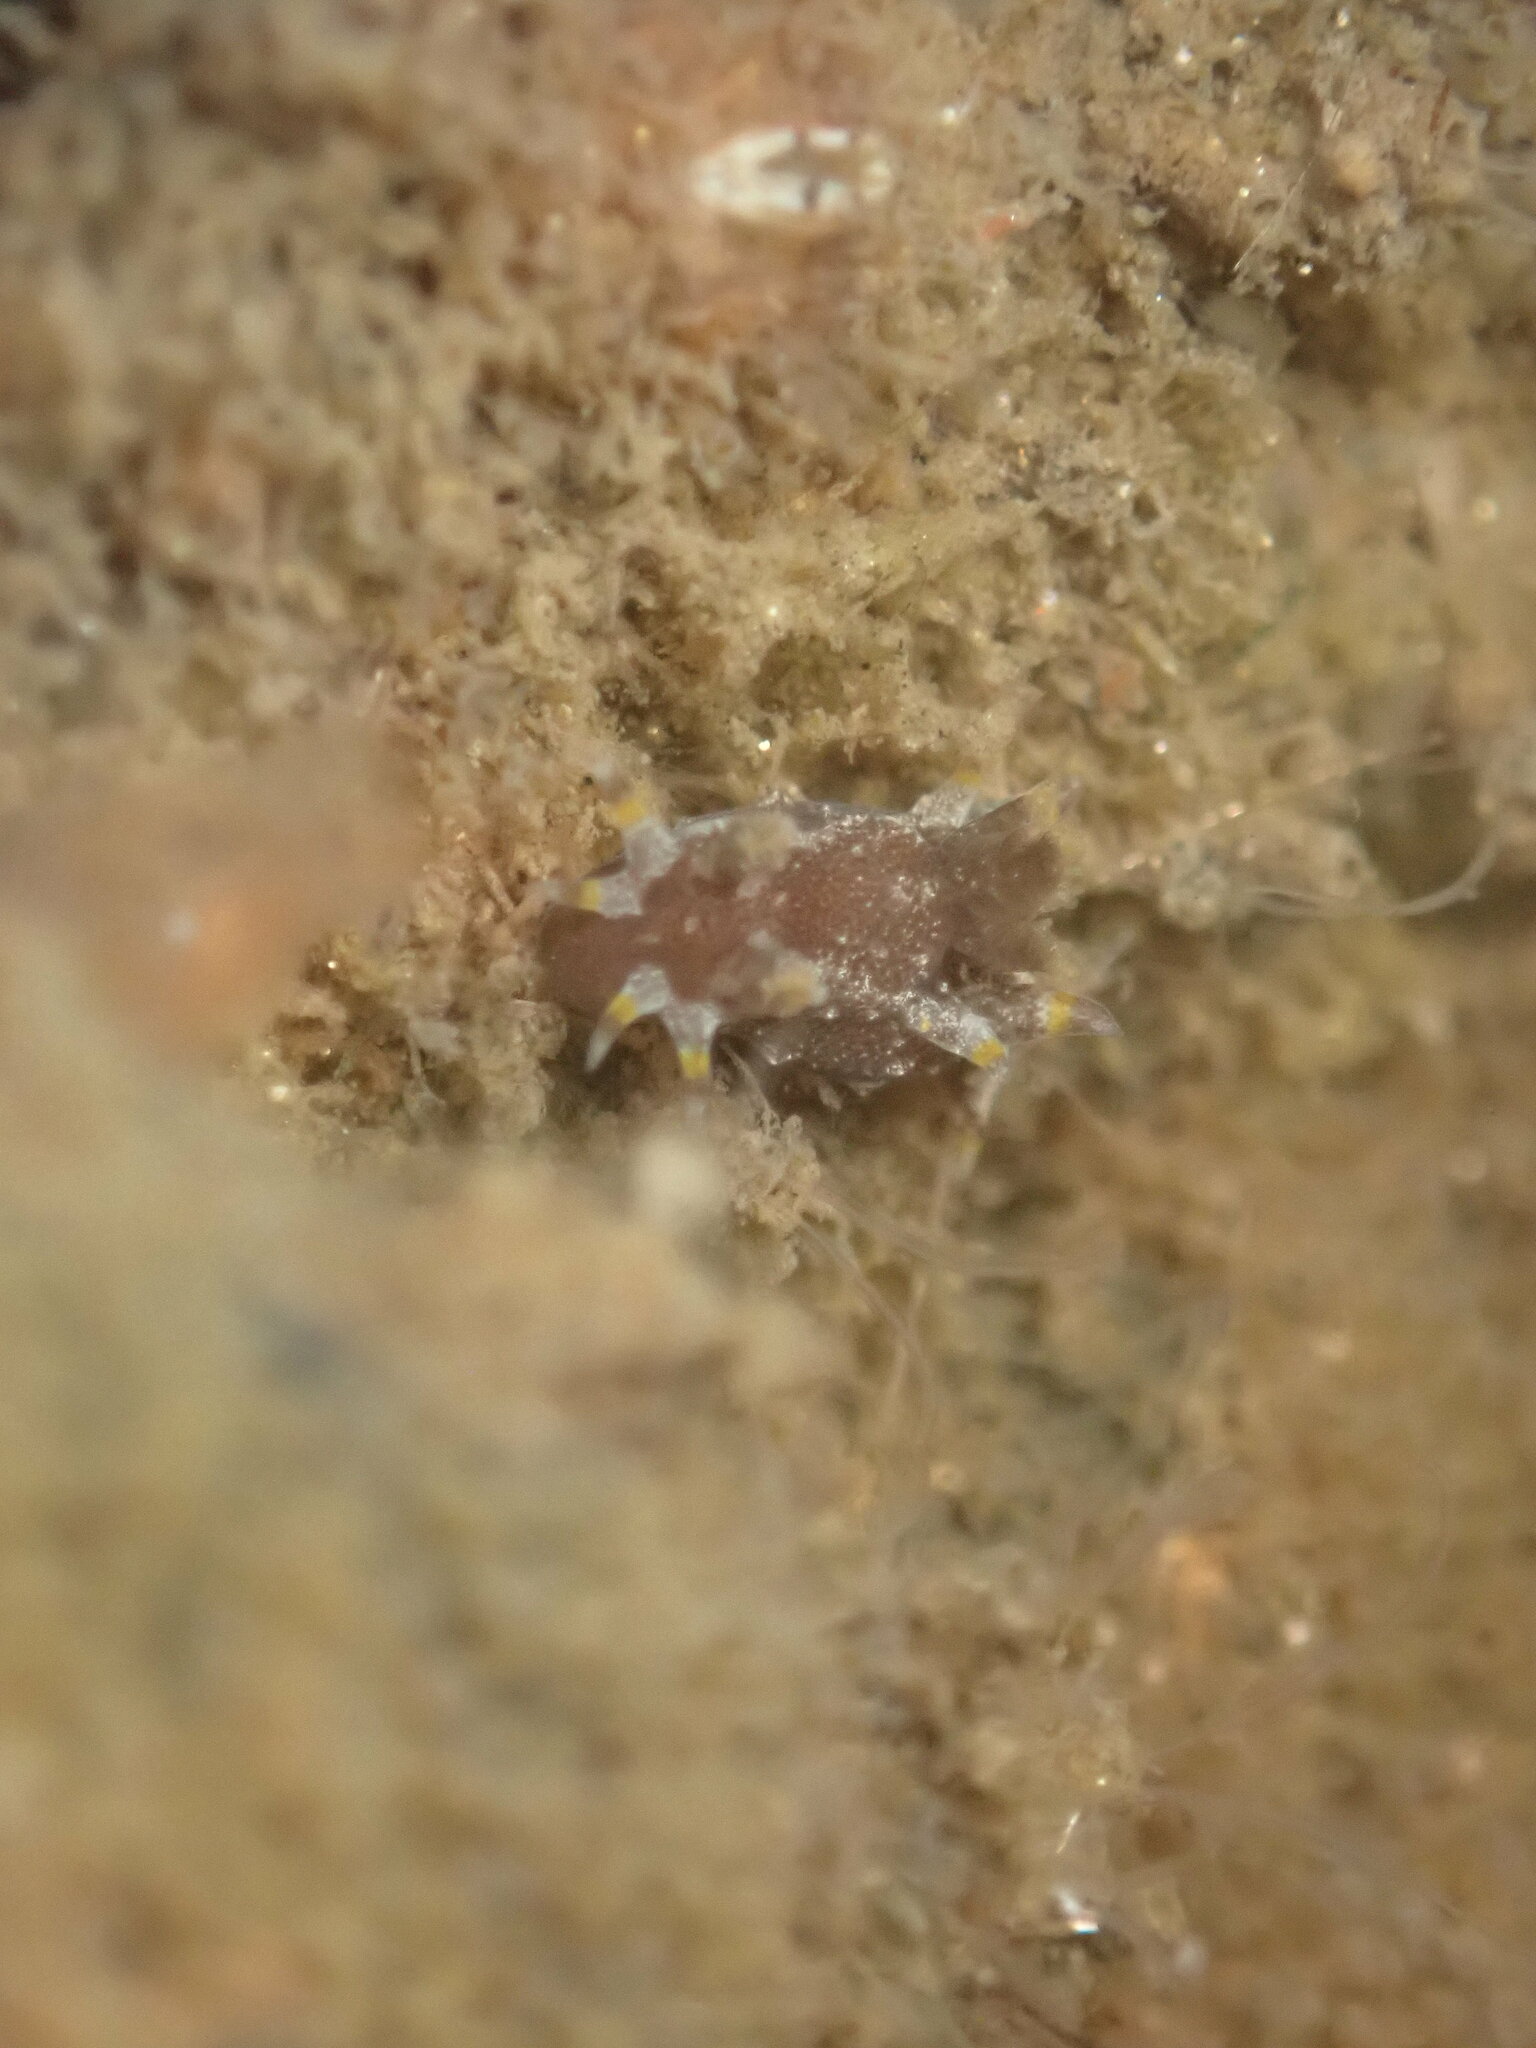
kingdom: Animalia
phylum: Mollusca
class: Gastropoda
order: Nudibranchia
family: Polyceridae
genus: Polycera
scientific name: Polycera hedgpethi
